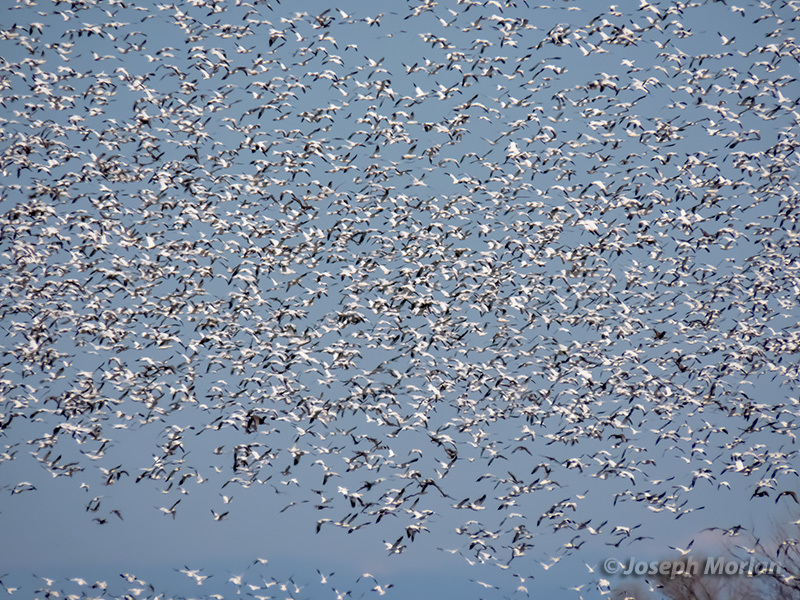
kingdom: Animalia
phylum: Chordata
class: Aves
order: Anseriformes
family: Anatidae
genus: Anser
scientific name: Anser
